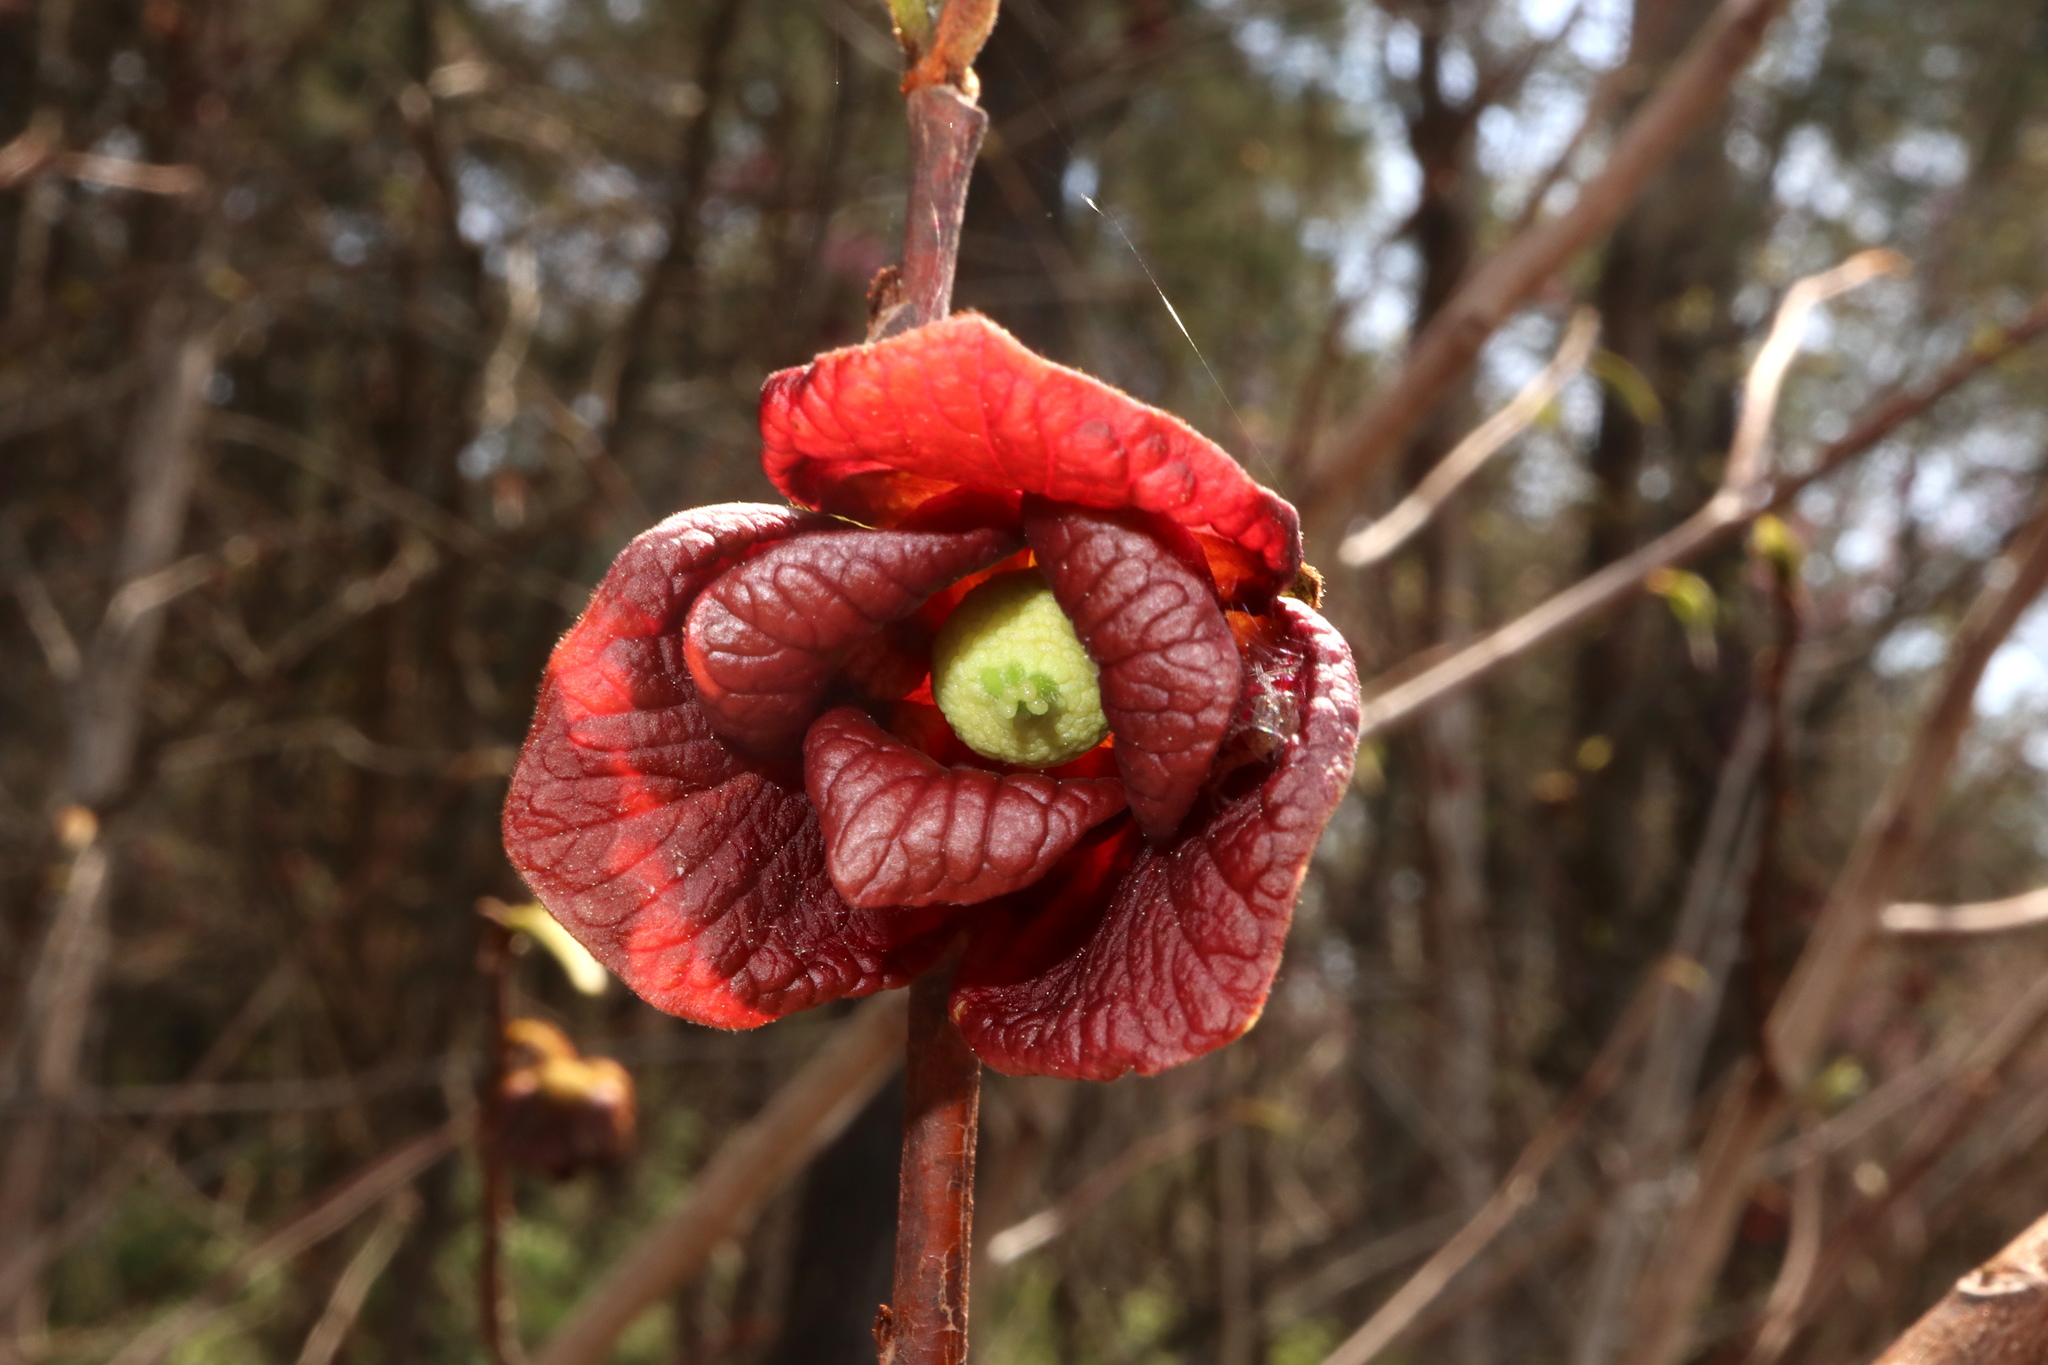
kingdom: Plantae
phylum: Tracheophyta
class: Magnoliopsida
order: Magnoliales
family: Annonaceae
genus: Asimina
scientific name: Asimina triloba
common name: Dog-banana
